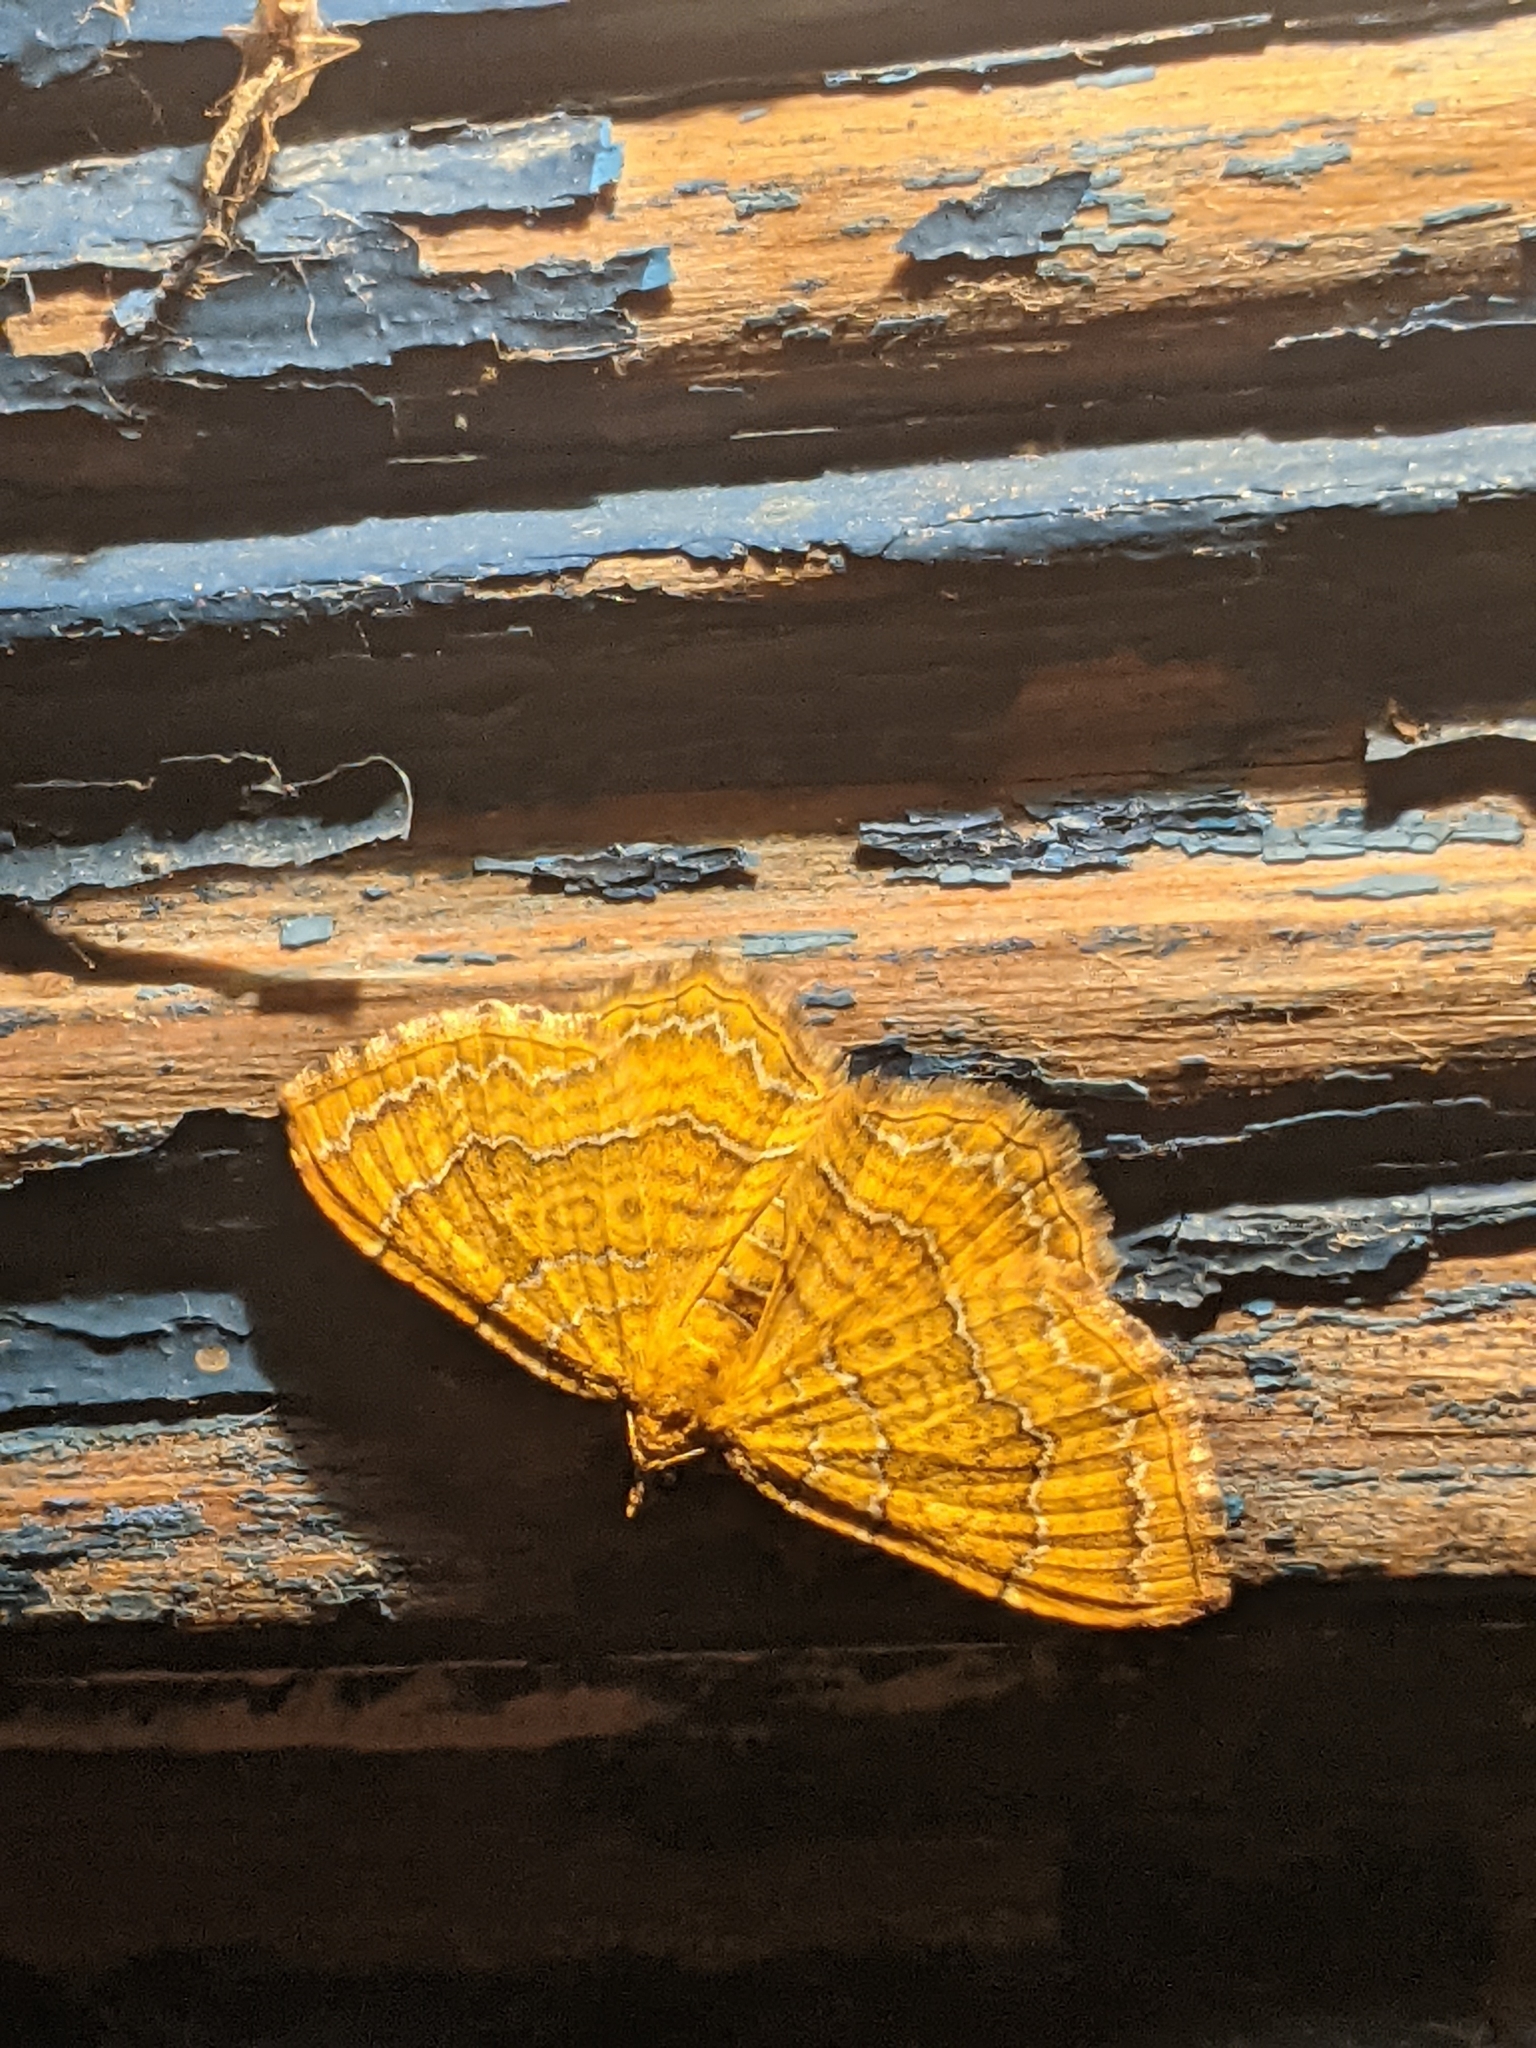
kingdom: Animalia
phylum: Arthropoda
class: Insecta
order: Lepidoptera
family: Geometridae
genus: Camptogramma
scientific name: Camptogramma bilineata
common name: Yellow shell
